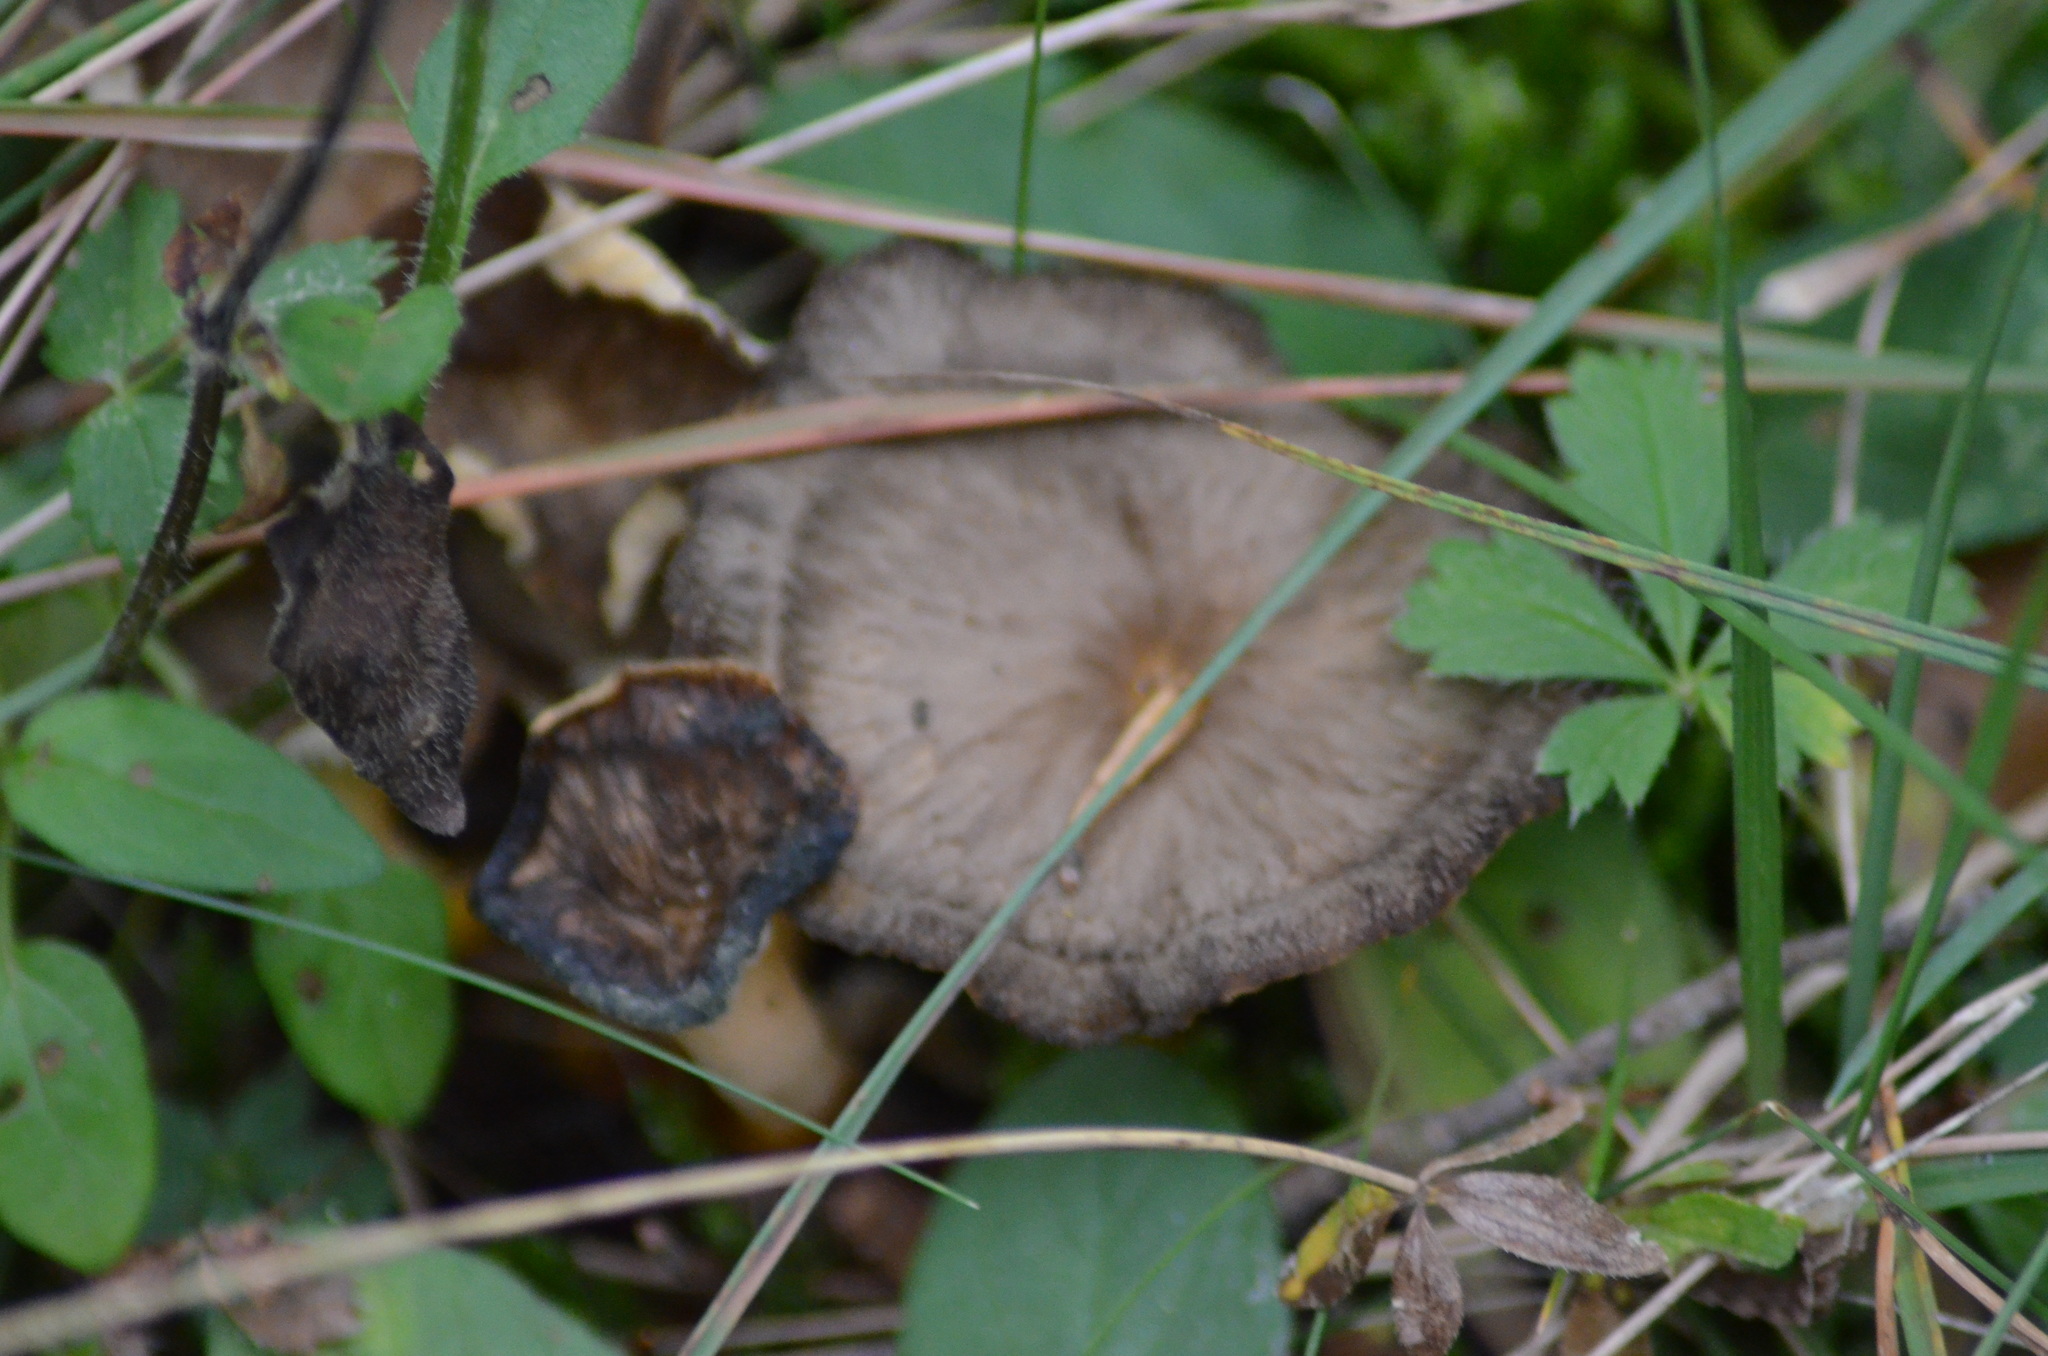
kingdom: Fungi
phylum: Basidiomycota
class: Agaricomycetes
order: Cantharellales
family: Hydnaceae
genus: Craterellus
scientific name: Craterellus lutescens
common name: Golden chanterelle
